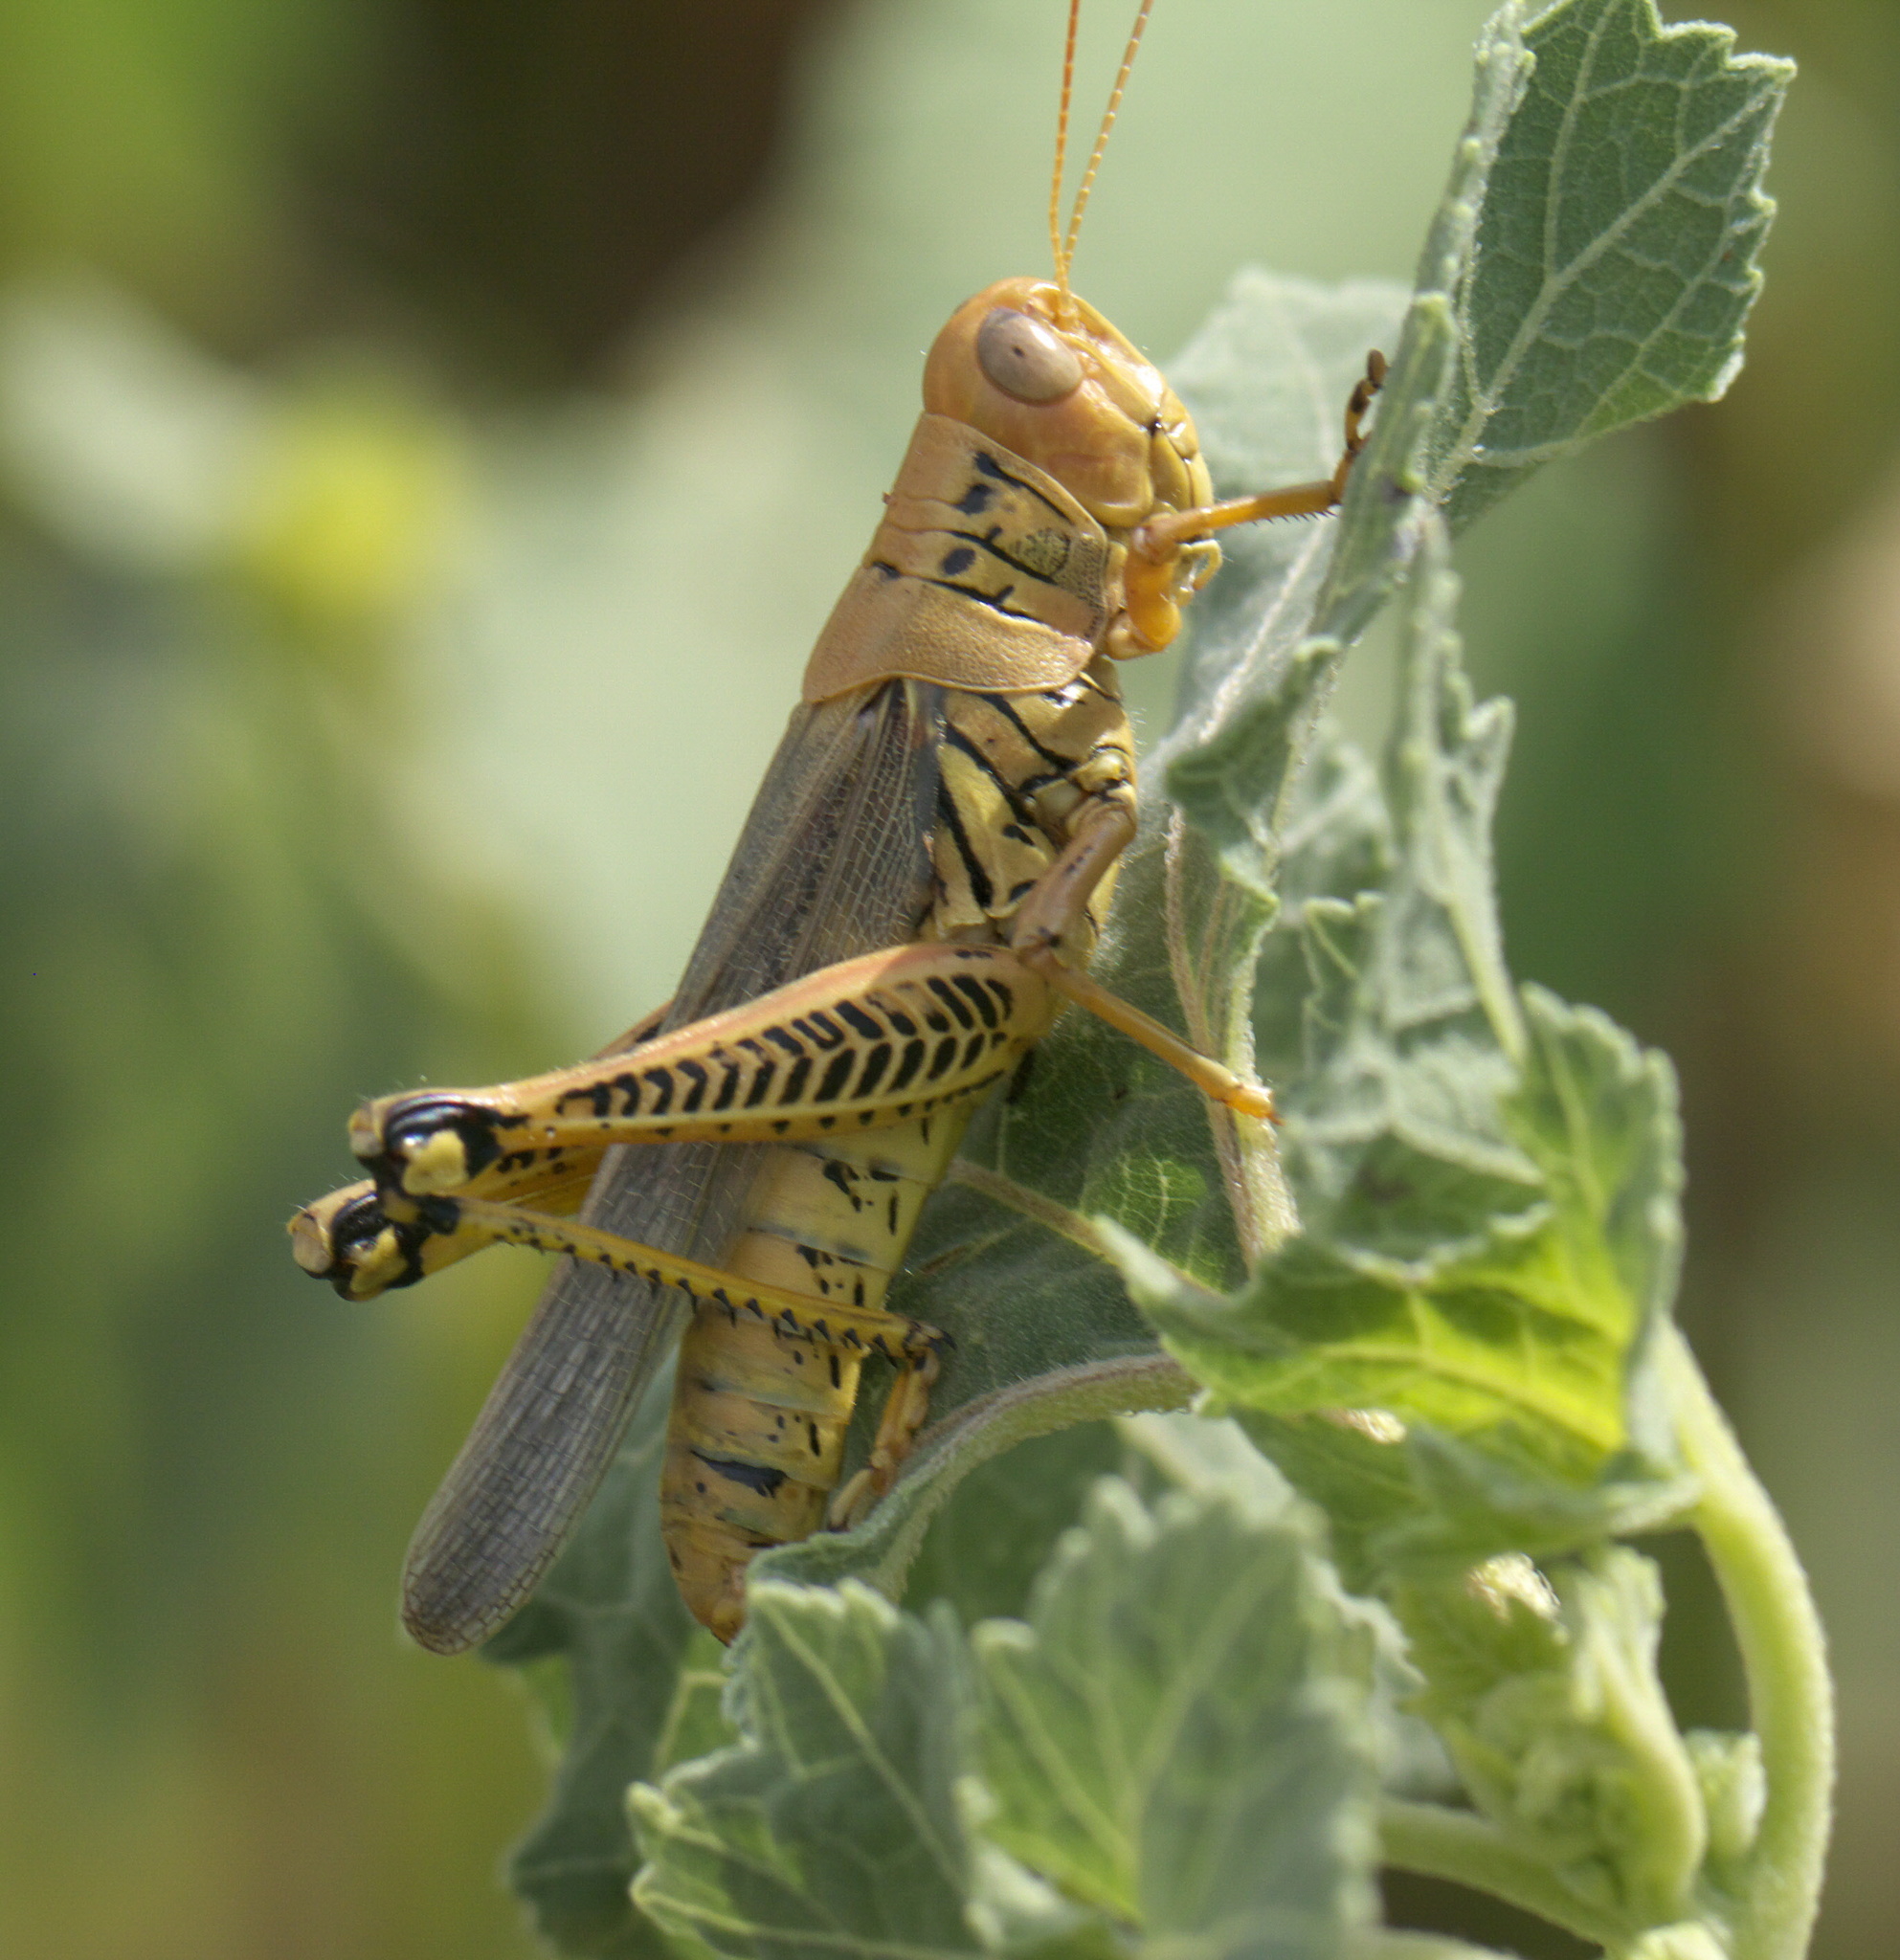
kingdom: Animalia
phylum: Arthropoda
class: Insecta
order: Orthoptera
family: Acrididae
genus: Melanoplus
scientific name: Melanoplus differentialis
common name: Differential grasshopper
